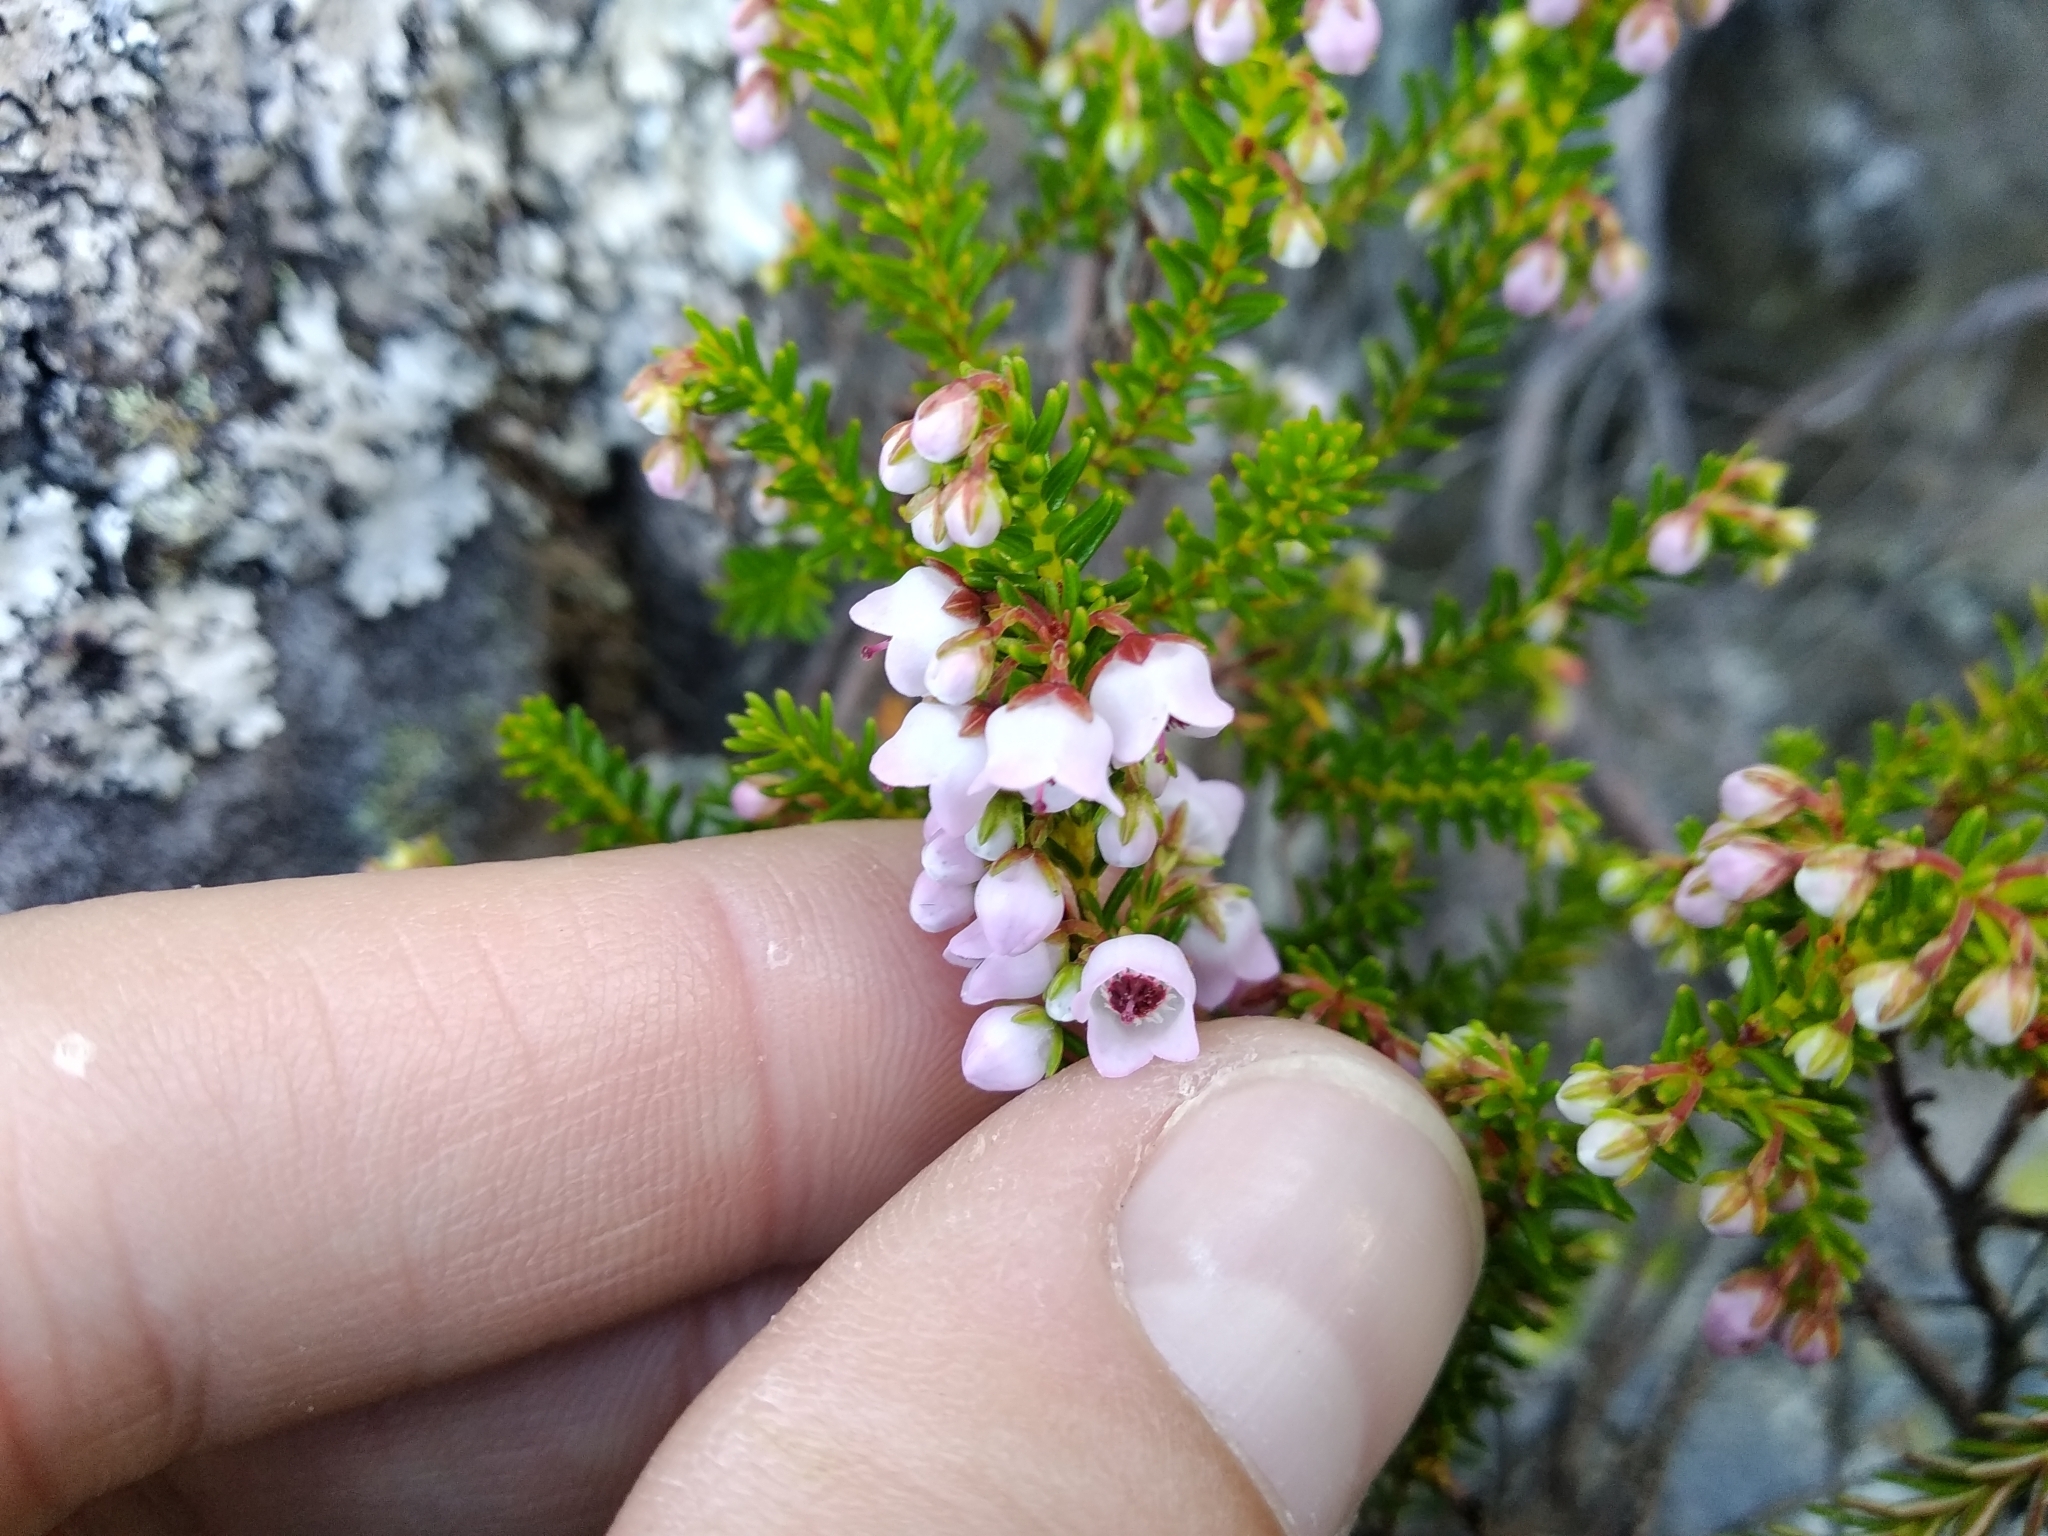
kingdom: Plantae
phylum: Tracheophyta
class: Magnoliopsida
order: Ericales
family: Ericaceae
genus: Erica
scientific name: Erica curvirostris
